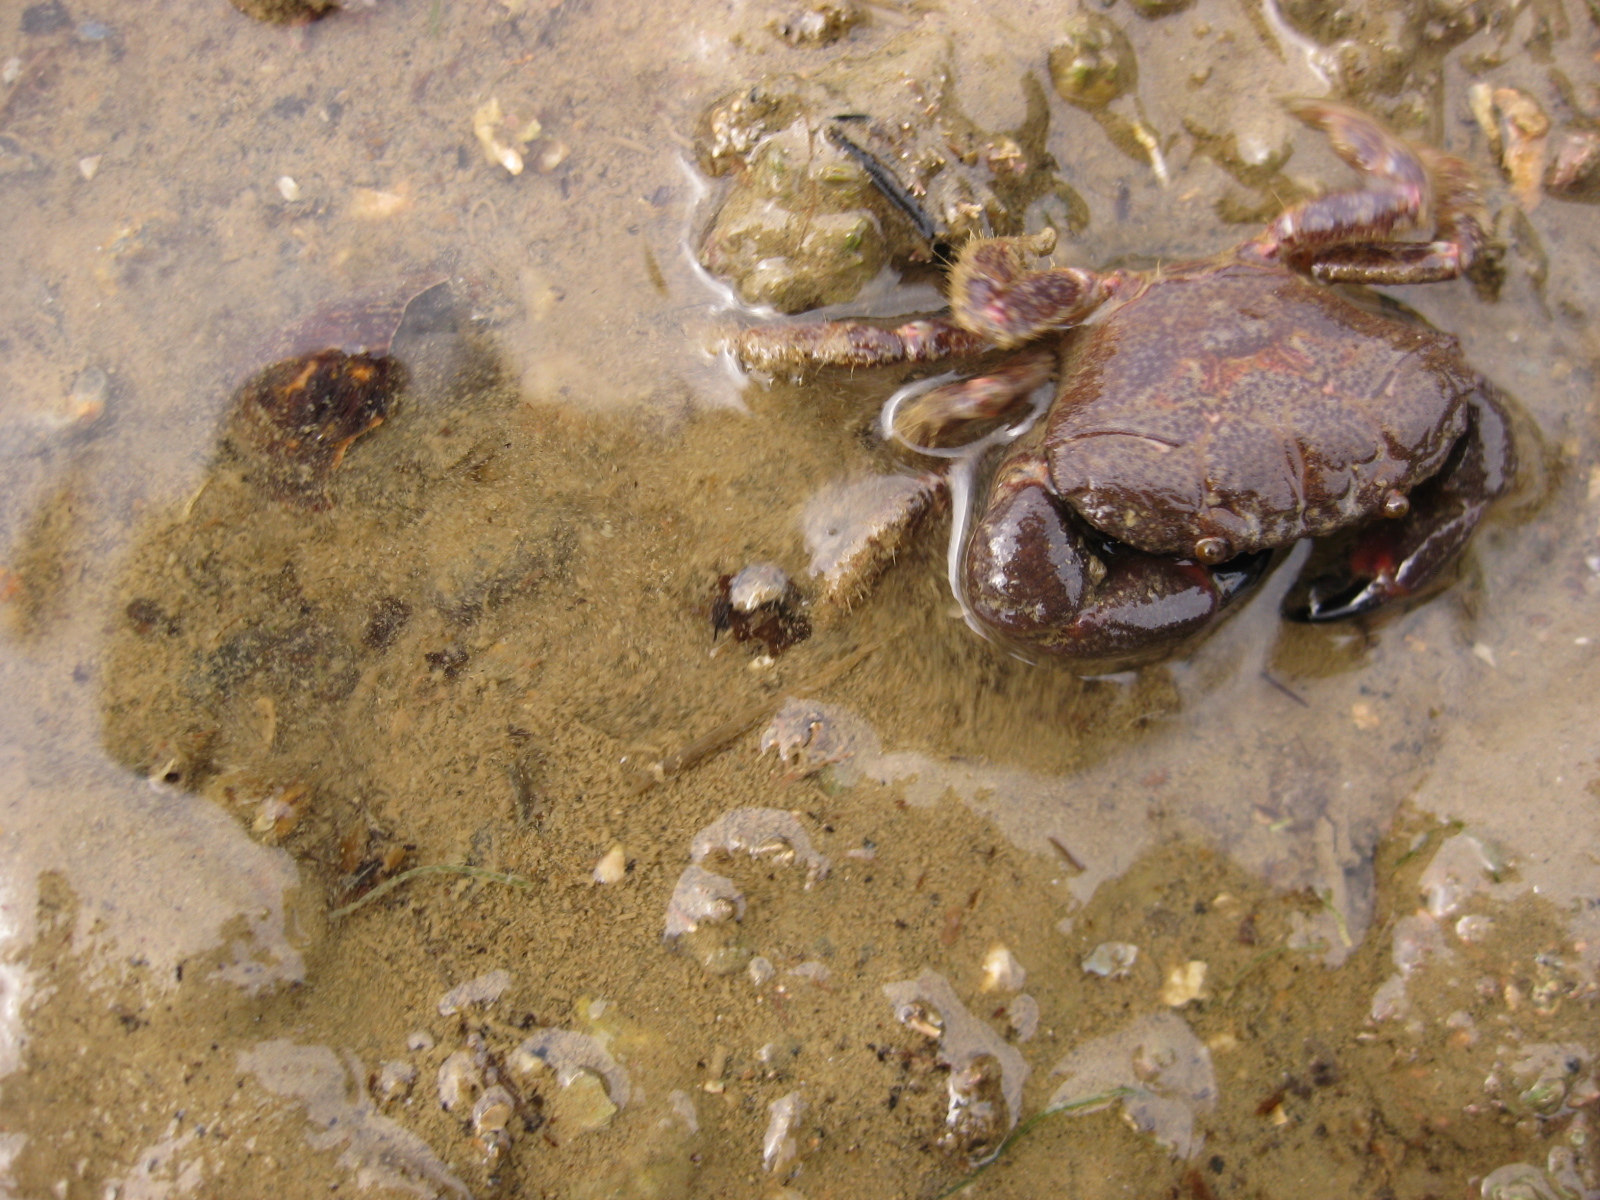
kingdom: Animalia
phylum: Arthropoda
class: Malacostraca
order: Decapoda
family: Oziidae
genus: Ozius
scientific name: Ozius deplanatus
